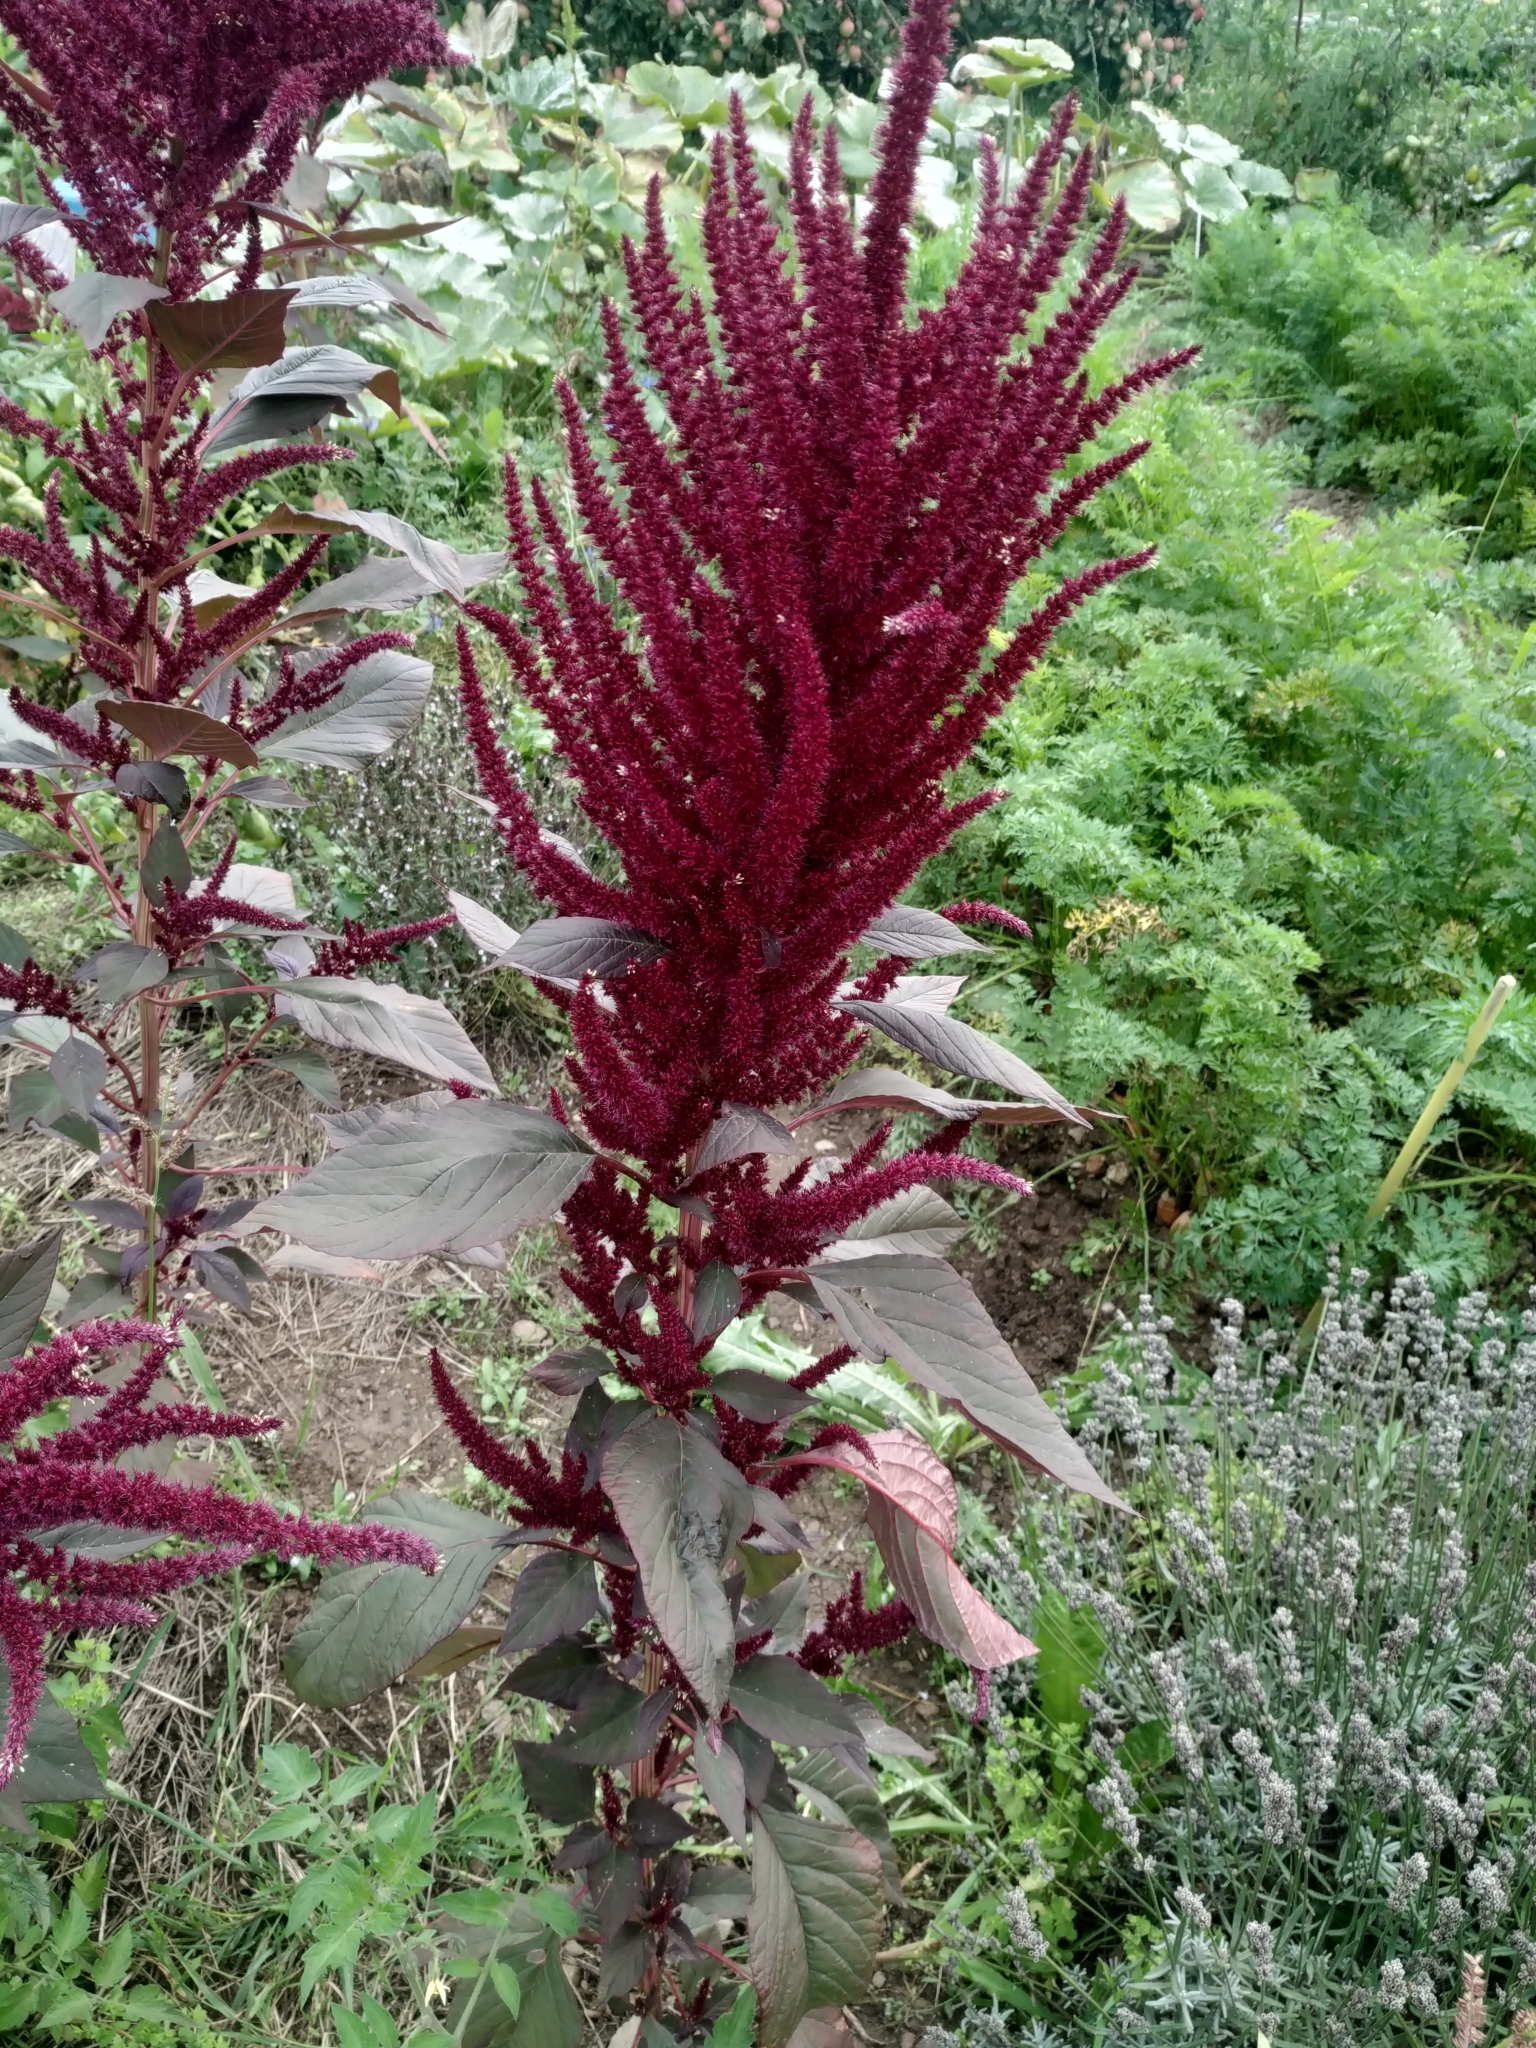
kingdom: Plantae
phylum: Tracheophyta
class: Magnoliopsida
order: Caryophyllales
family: Amaranthaceae
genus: Amaranthus
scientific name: Amaranthus cruentus
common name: Purple amaranth
